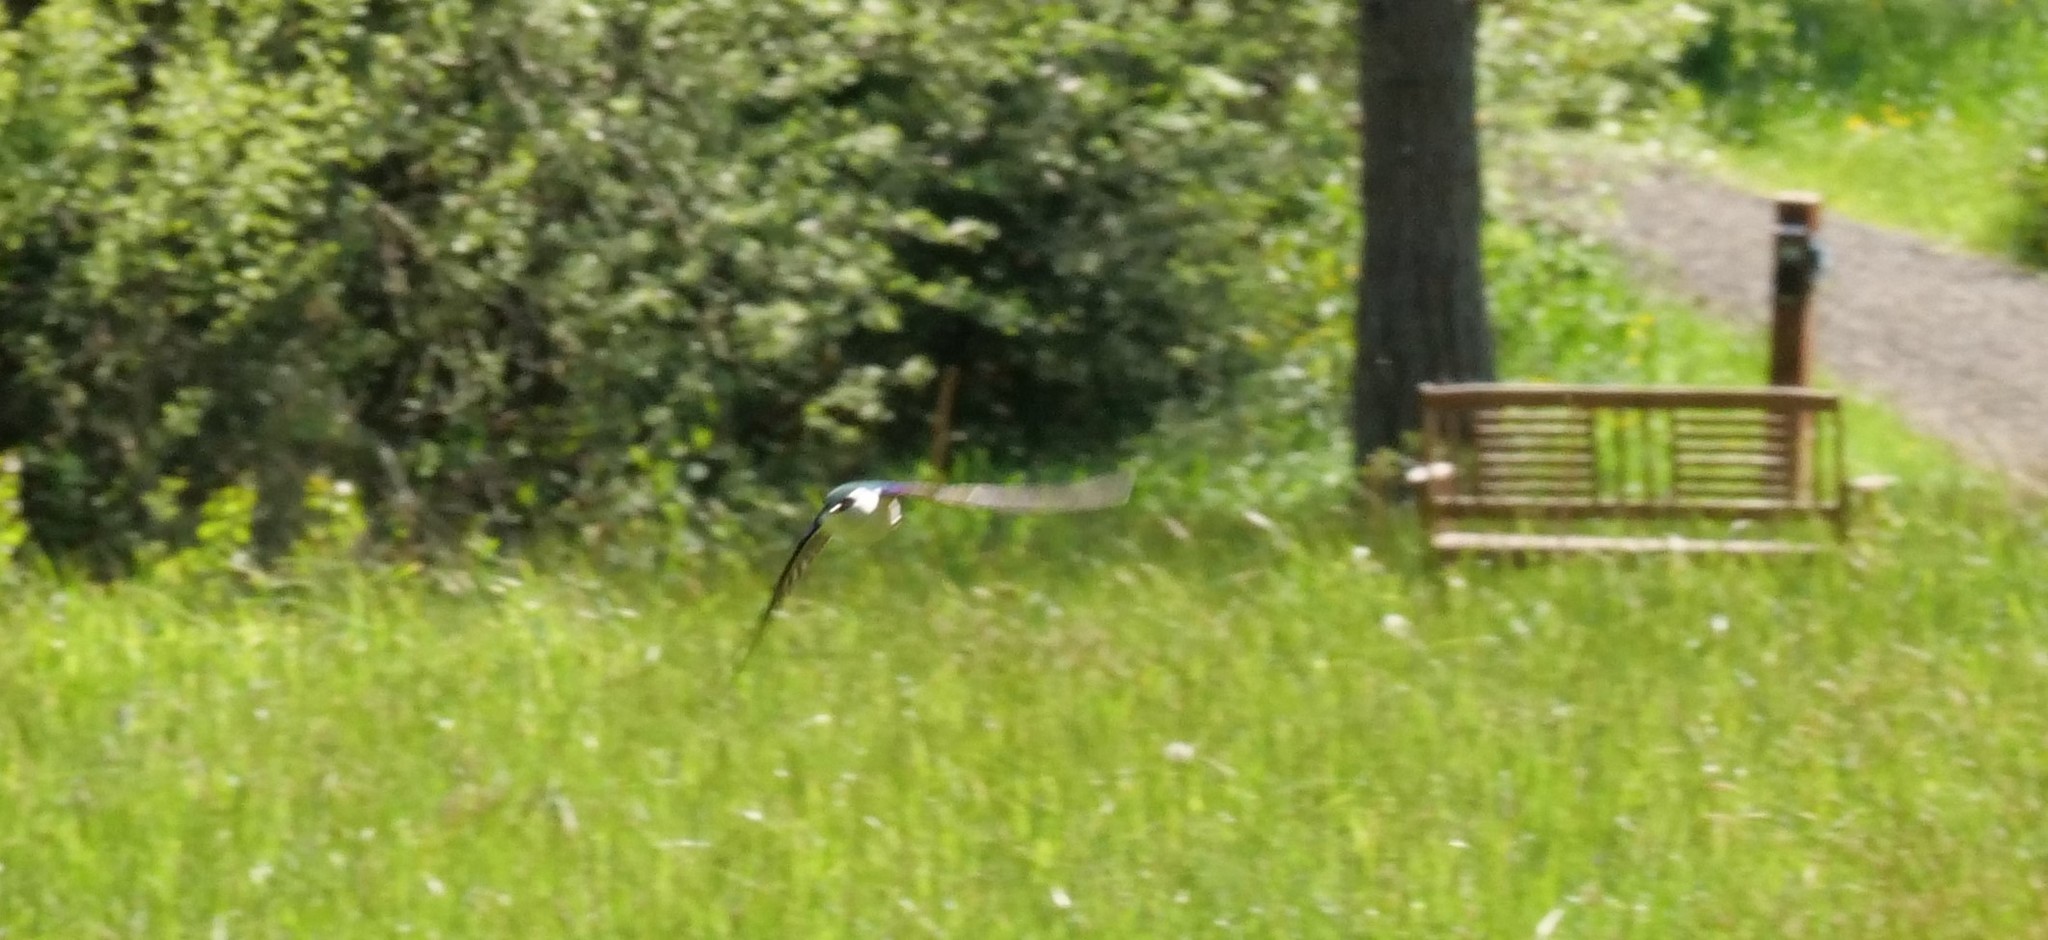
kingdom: Animalia
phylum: Chordata
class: Aves
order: Passeriformes
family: Hirundinidae
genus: Tachycineta
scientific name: Tachycineta thalassina
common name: Violet-green swallow
